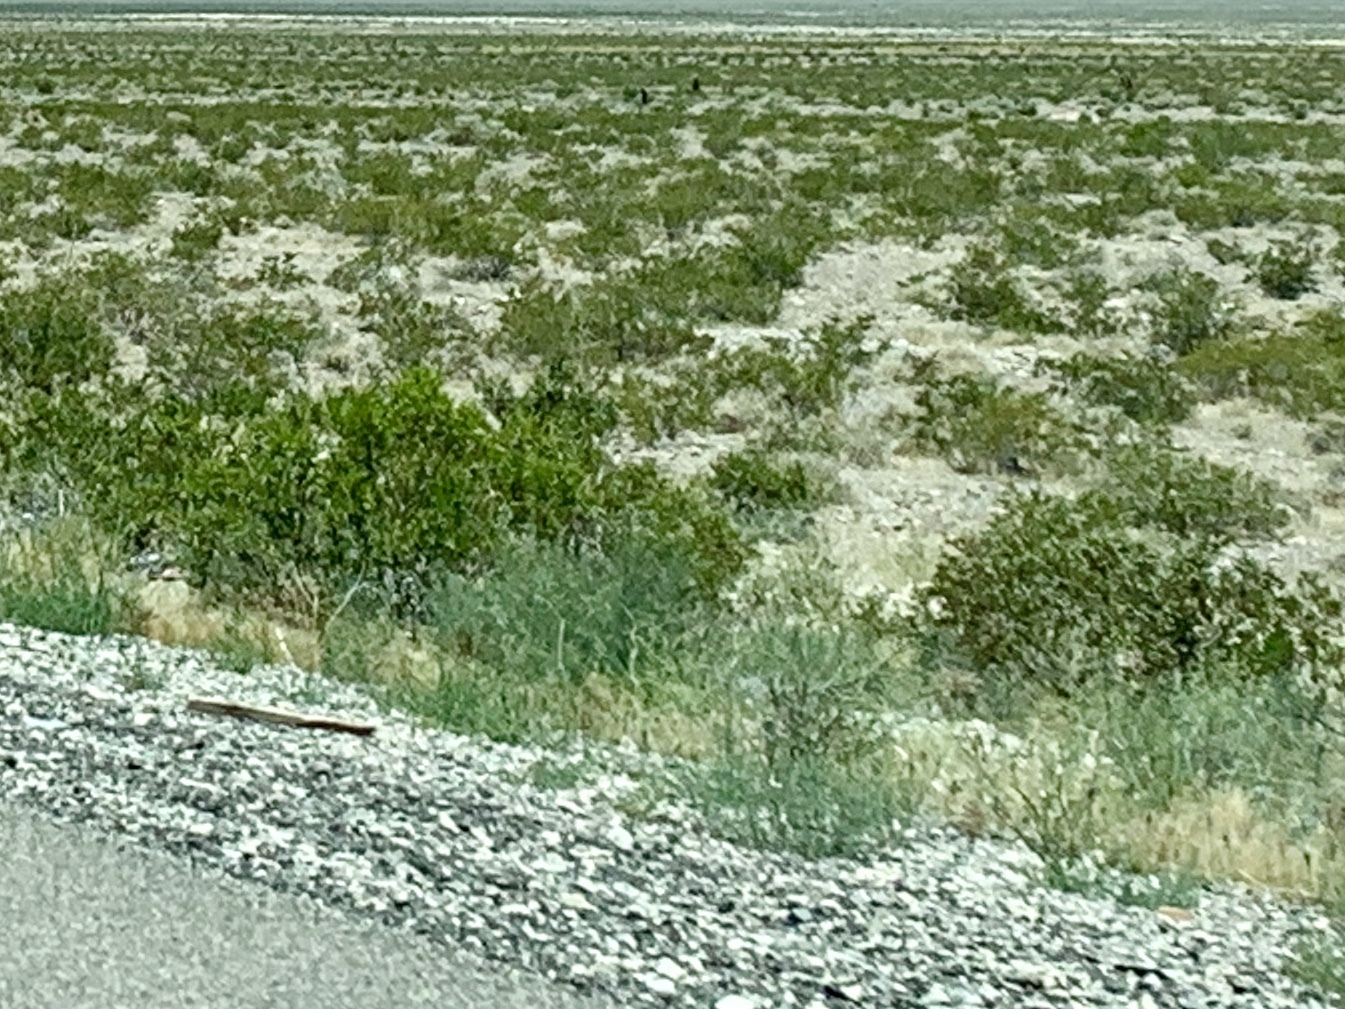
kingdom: Plantae
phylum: Tracheophyta
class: Magnoliopsida
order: Zygophyllales
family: Zygophyllaceae
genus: Larrea
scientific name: Larrea tridentata
